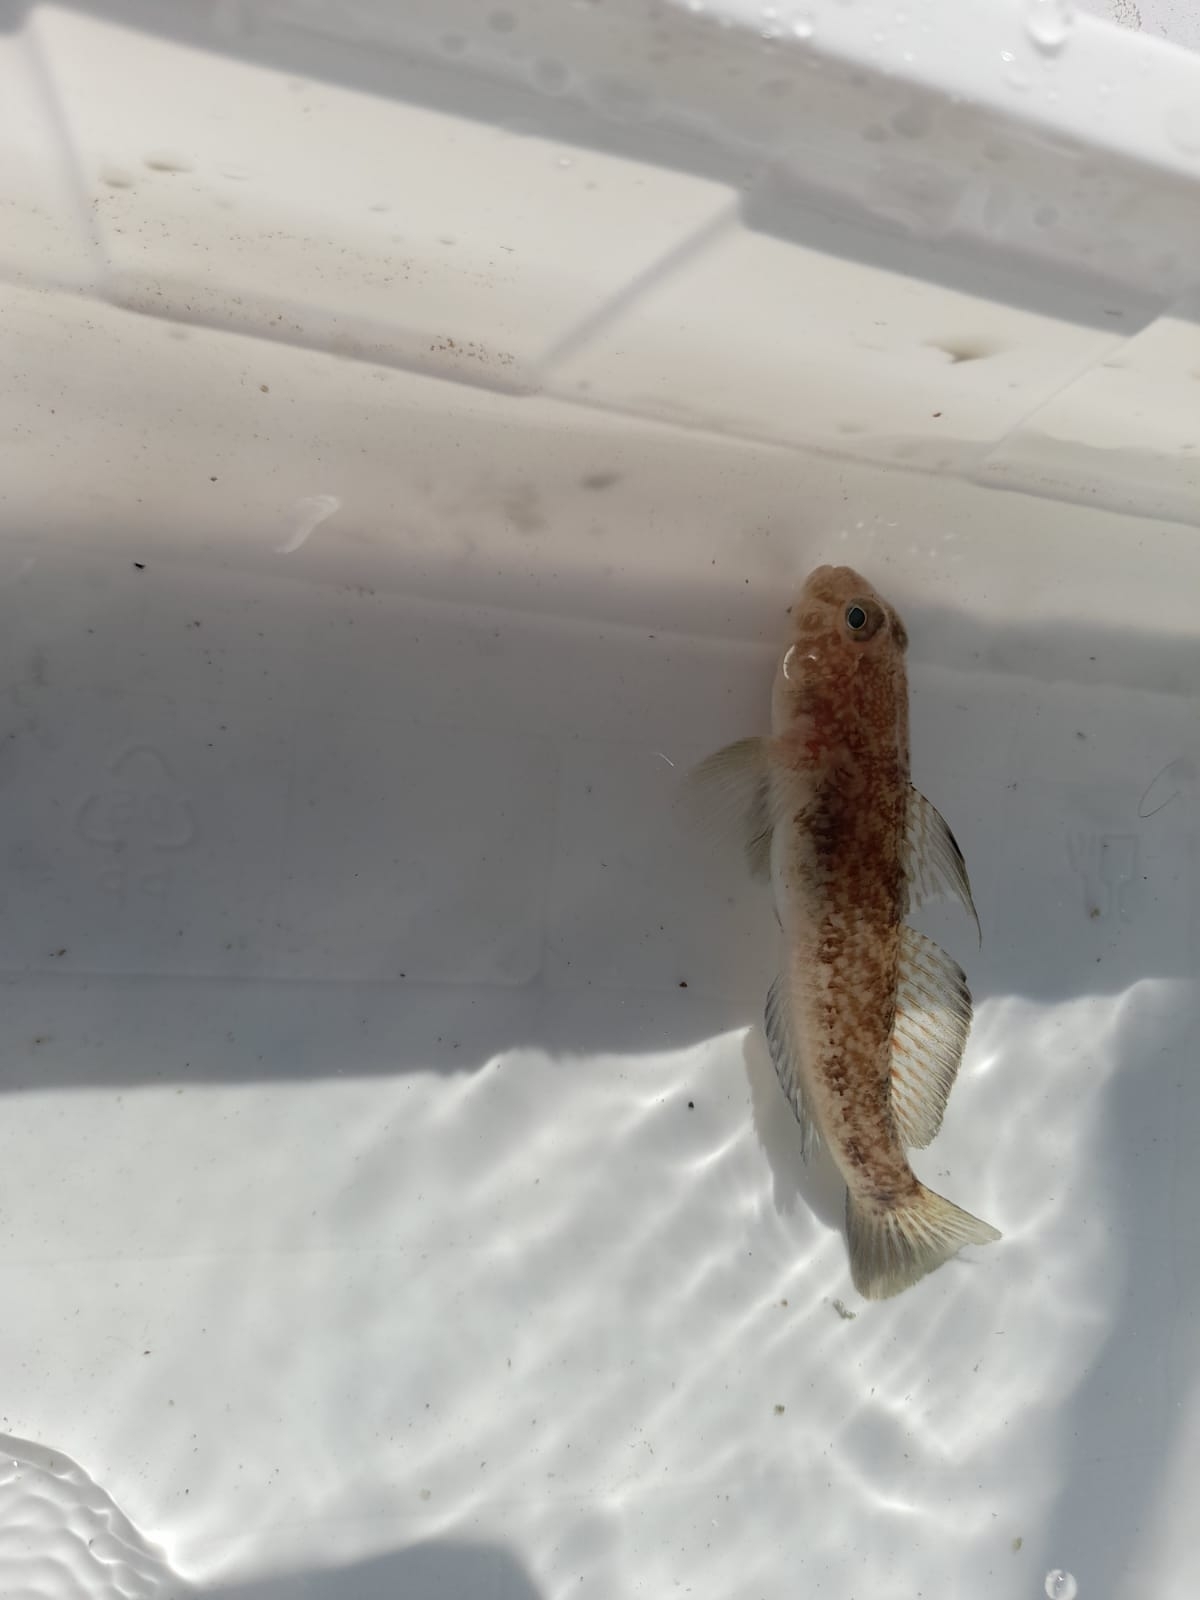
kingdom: Animalia
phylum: Chordata
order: Perciformes
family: Gobiidae
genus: Gobius
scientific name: Gobius niger
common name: Black goby
